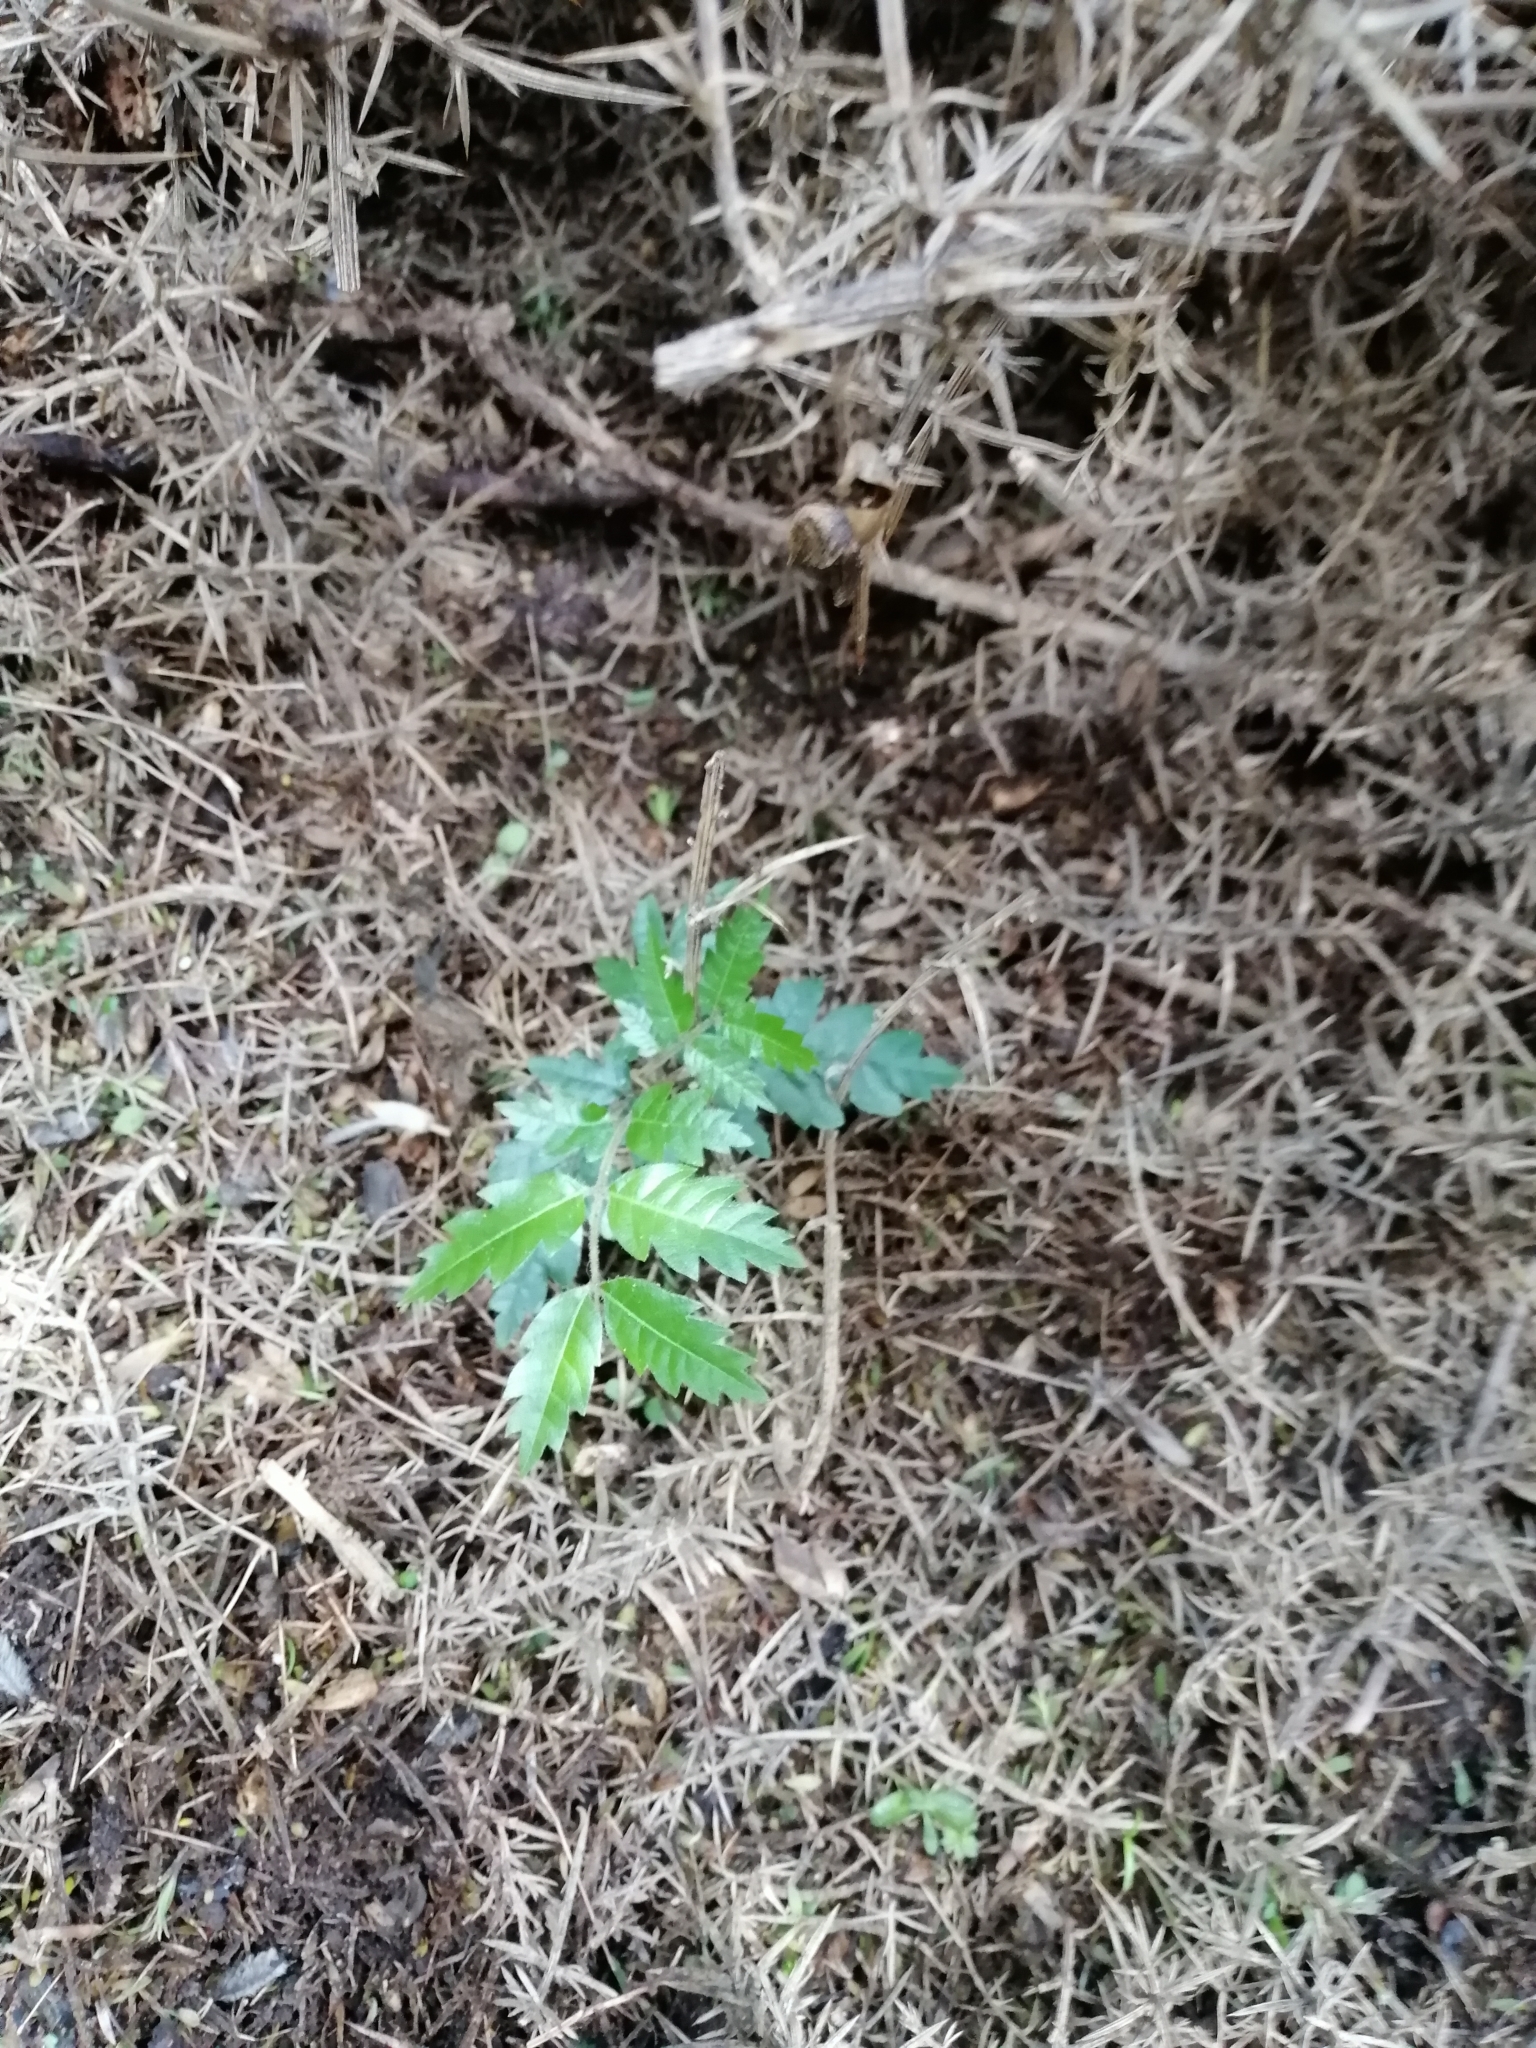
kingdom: Plantae
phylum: Tracheophyta
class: Magnoliopsida
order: Sapindales
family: Sapindaceae
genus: Alectryon
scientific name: Alectryon excelsus
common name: Three kings titoki
